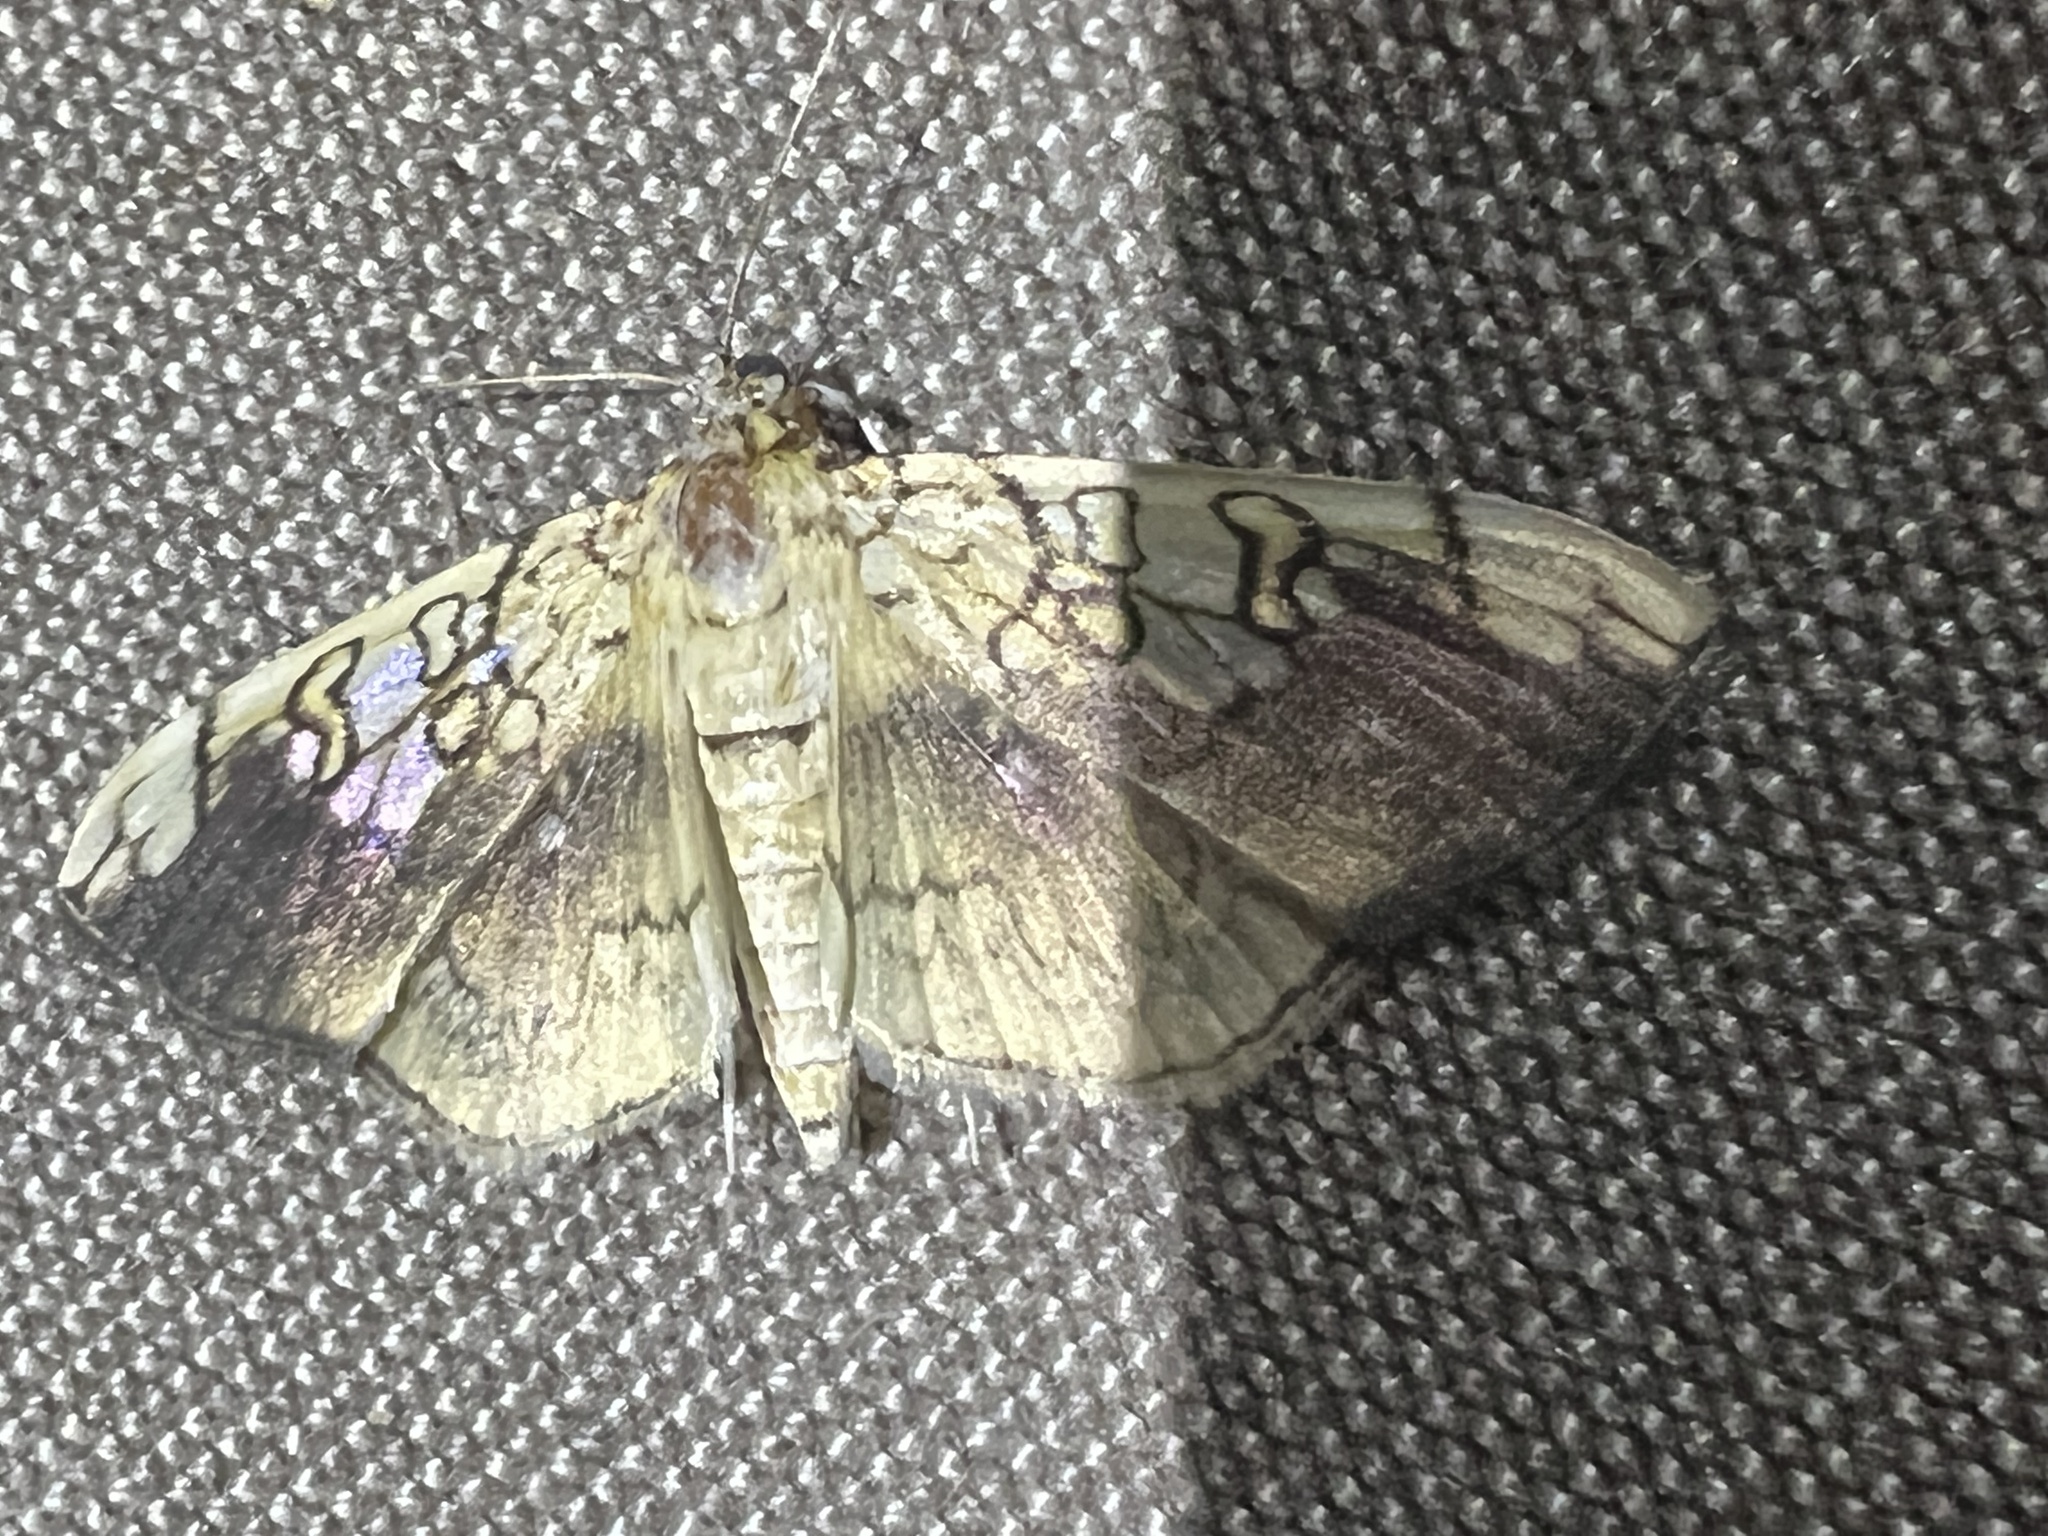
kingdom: Animalia
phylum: Arthropoda
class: Insecta
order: Lepidoptera
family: Crambidae
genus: Pantographa
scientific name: Pantographa limata
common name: Basswood leafroller moth
